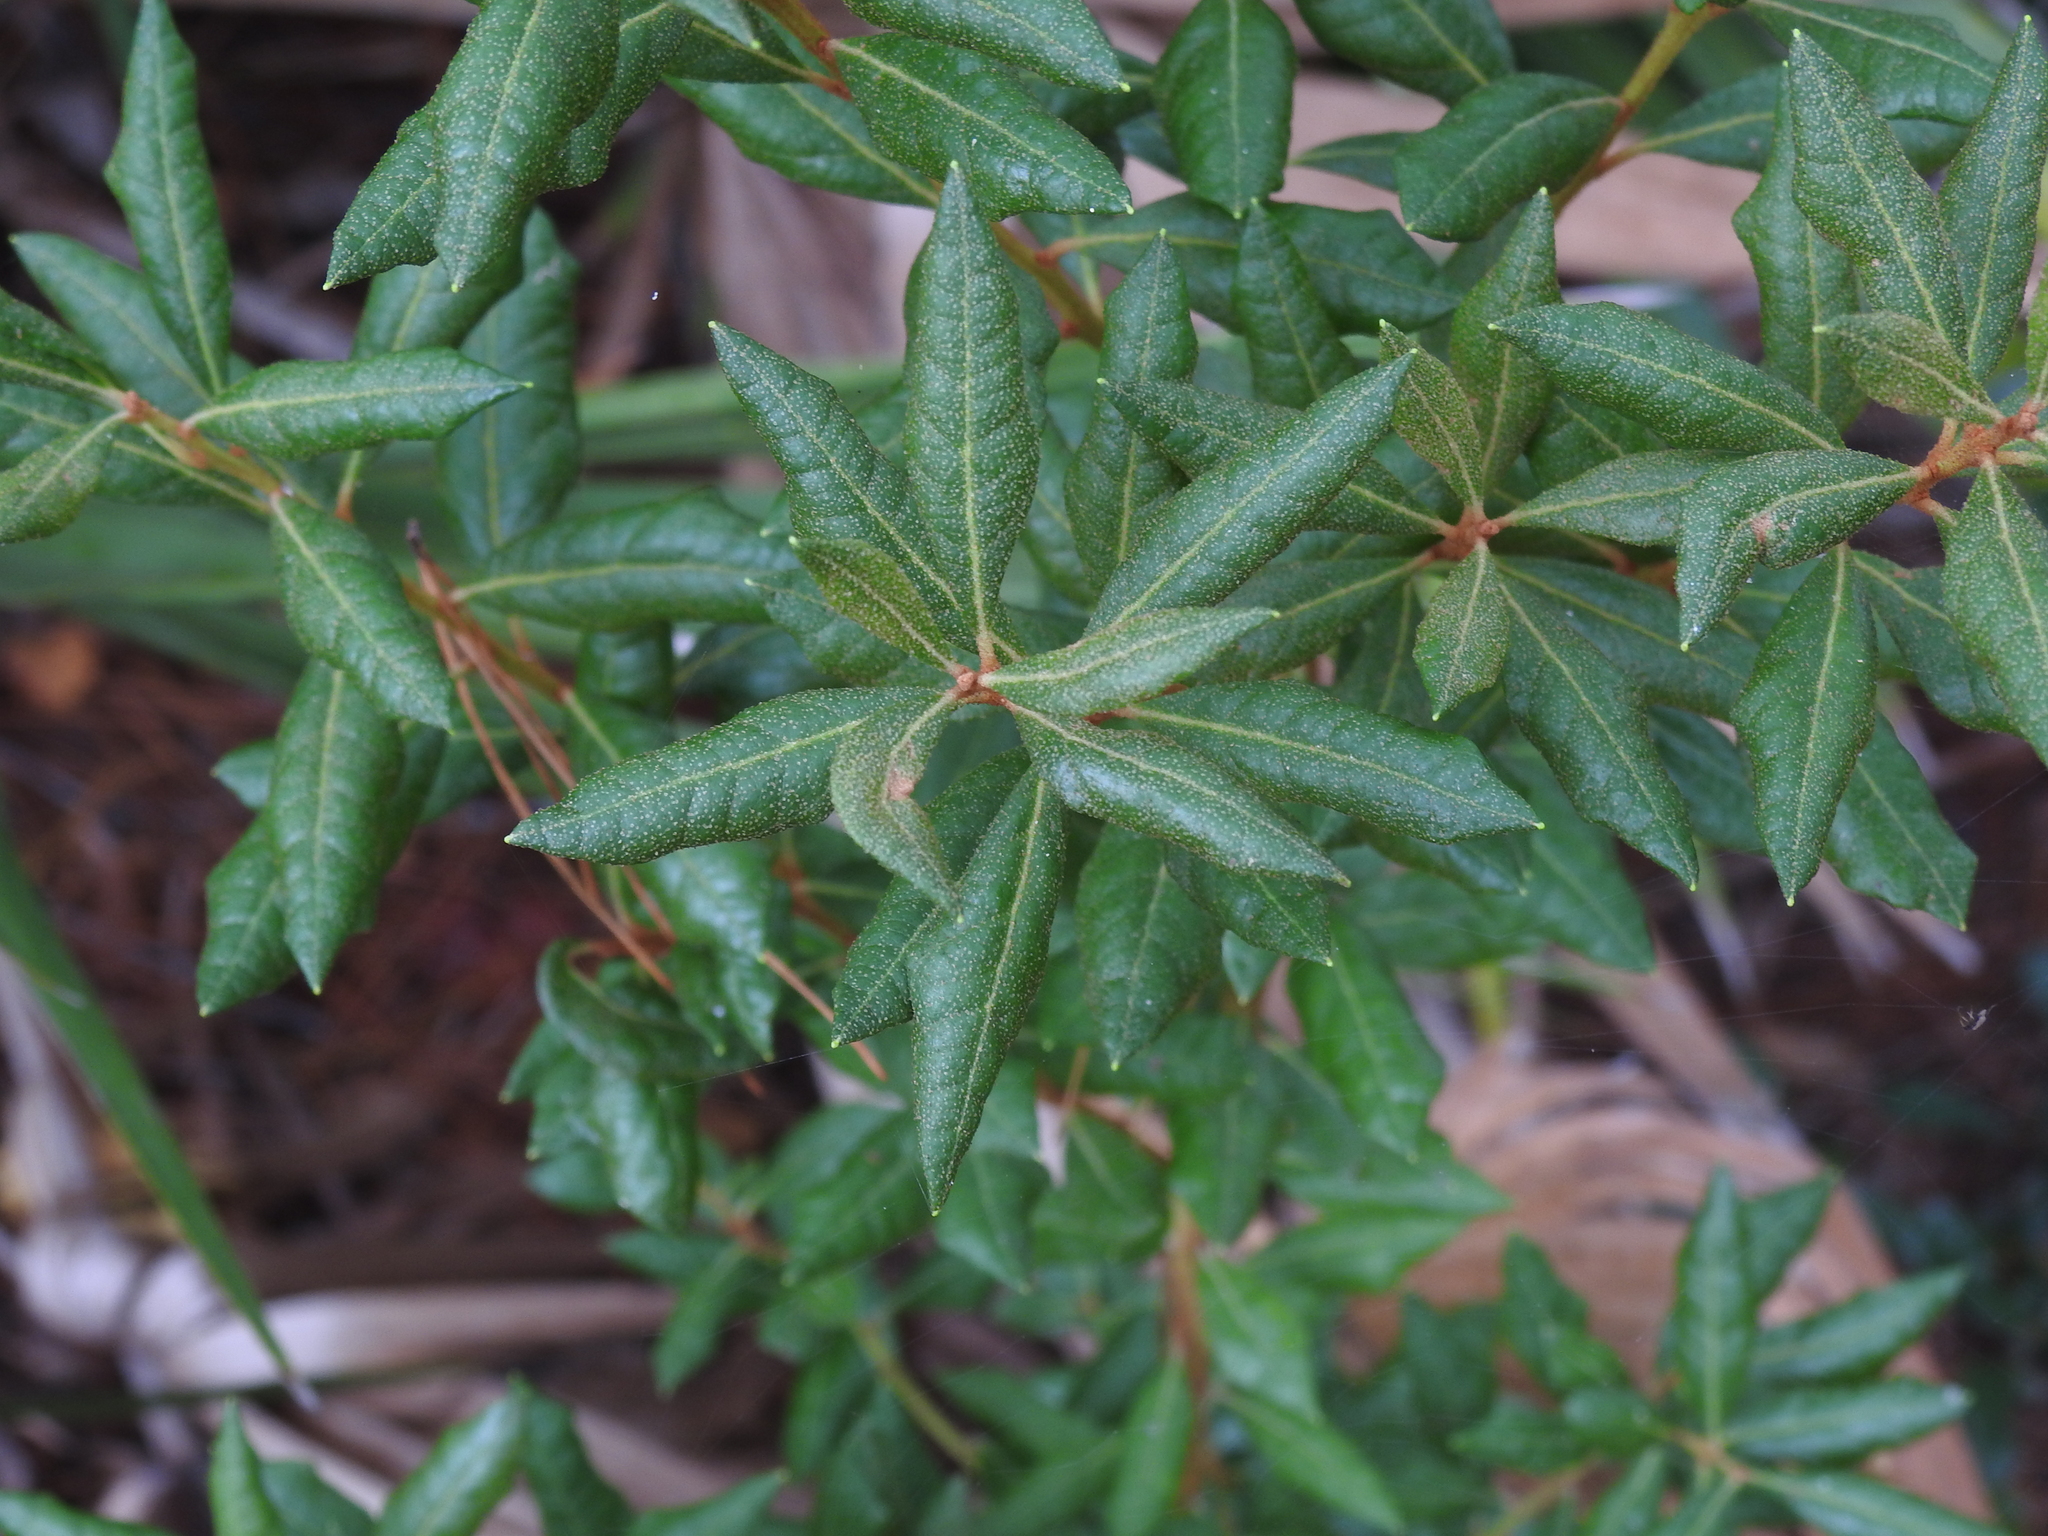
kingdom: Plantae
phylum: Tracheophyta
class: Magnoliopsida
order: Ericales
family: Ericaceae
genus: Lyonia
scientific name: Lyonia ferruginea
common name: Rusty lyonia
